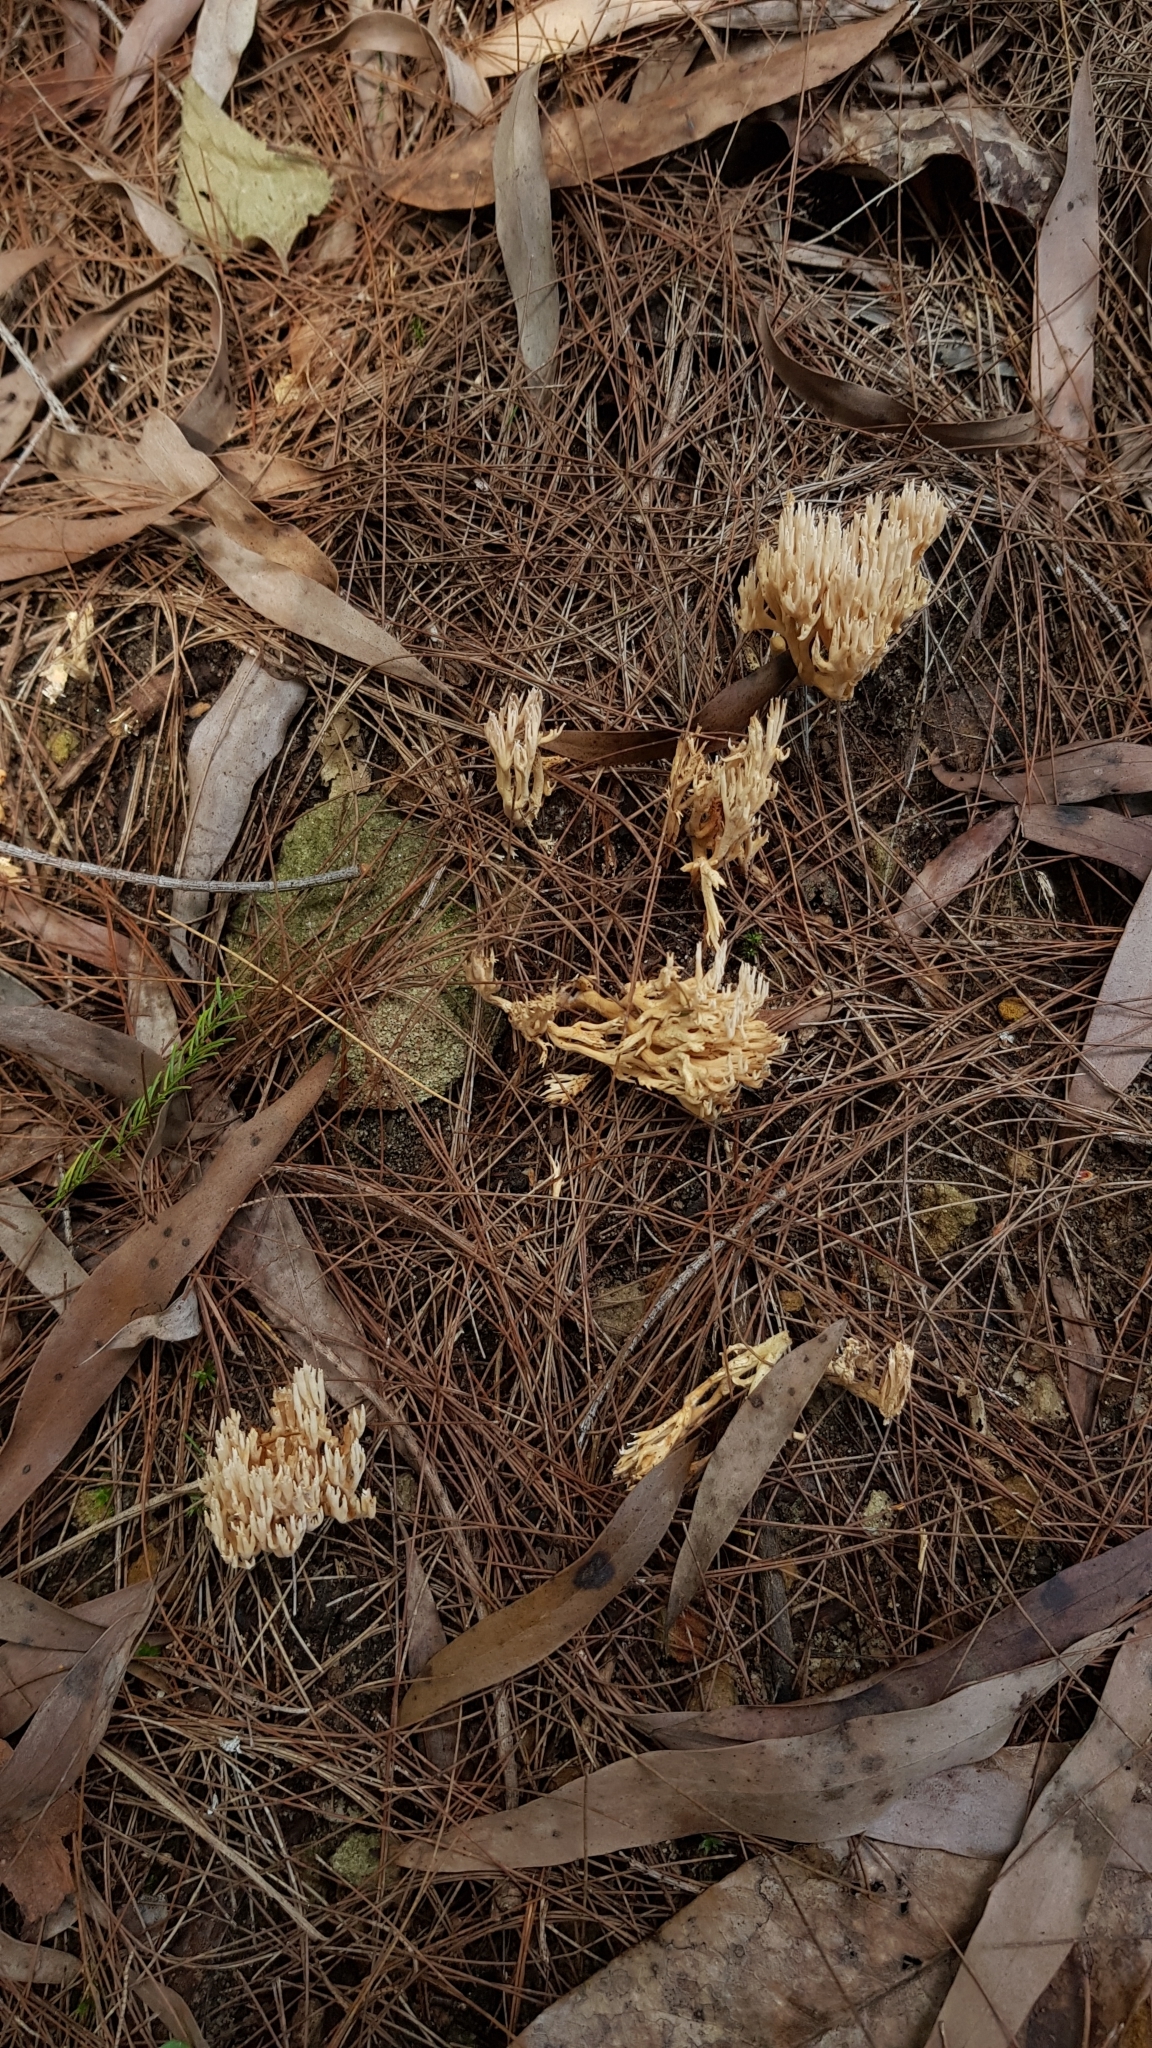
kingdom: Fungi
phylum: Basidiomycota
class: Agaricomycetes
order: Gomphales
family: Gomphaceae
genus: Ramaria
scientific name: Ramaria filicicola
